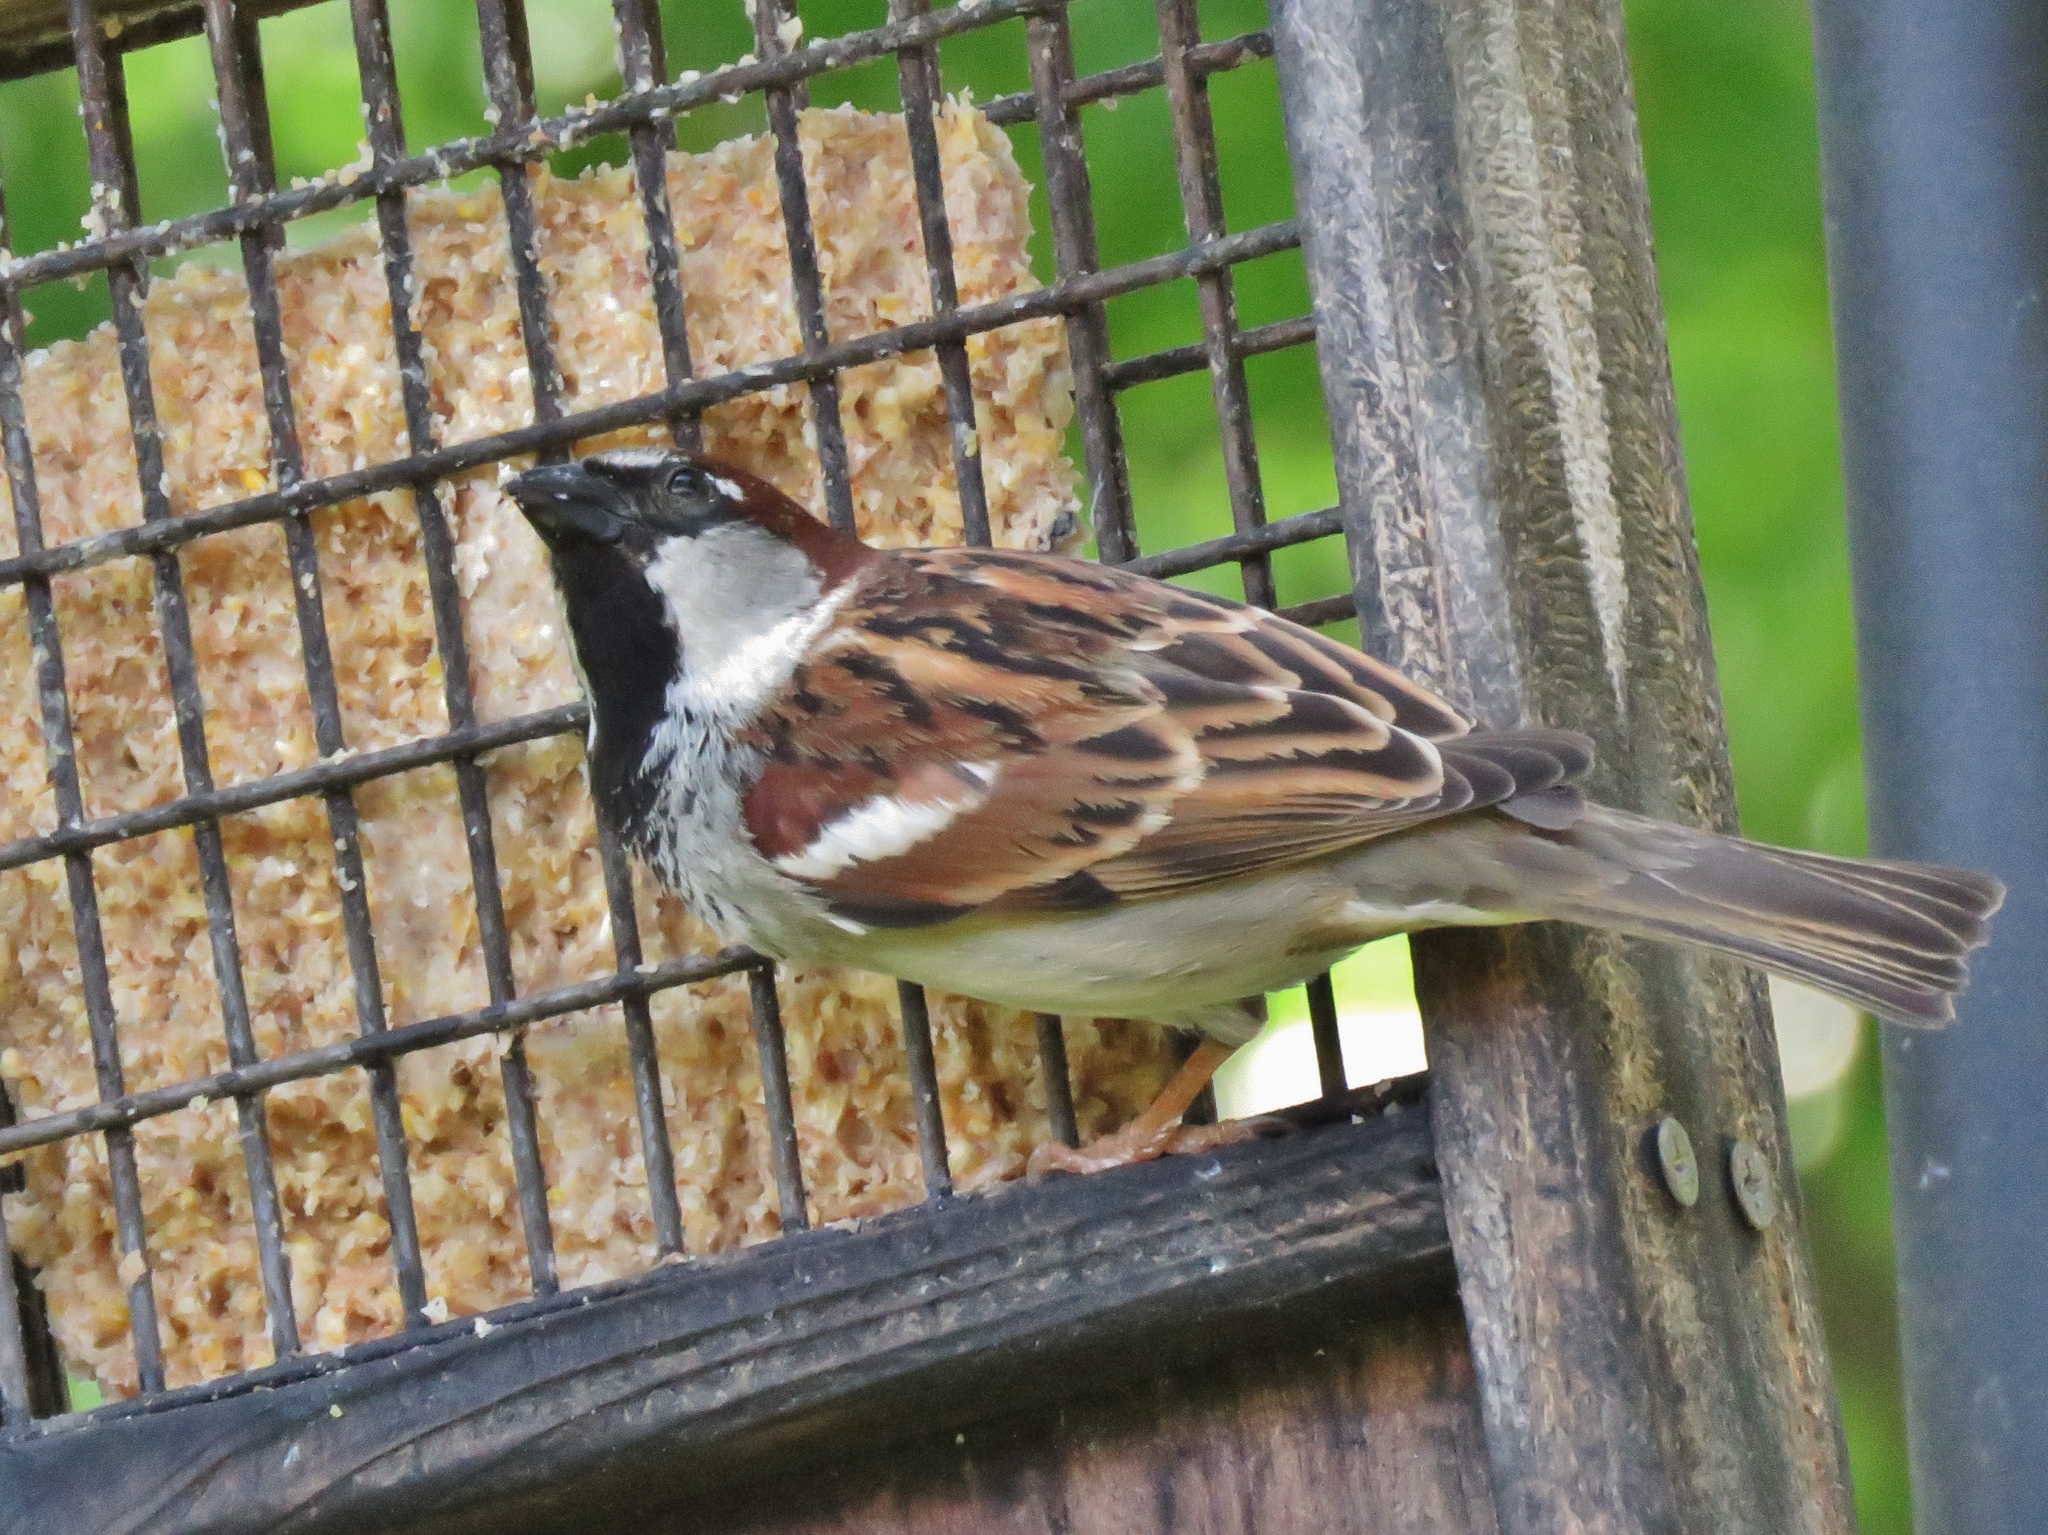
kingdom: Animalia
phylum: Chordata
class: Aves
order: Passeriformes
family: Passeridae
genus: Passer
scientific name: Passer domesticus
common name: House sparrow
